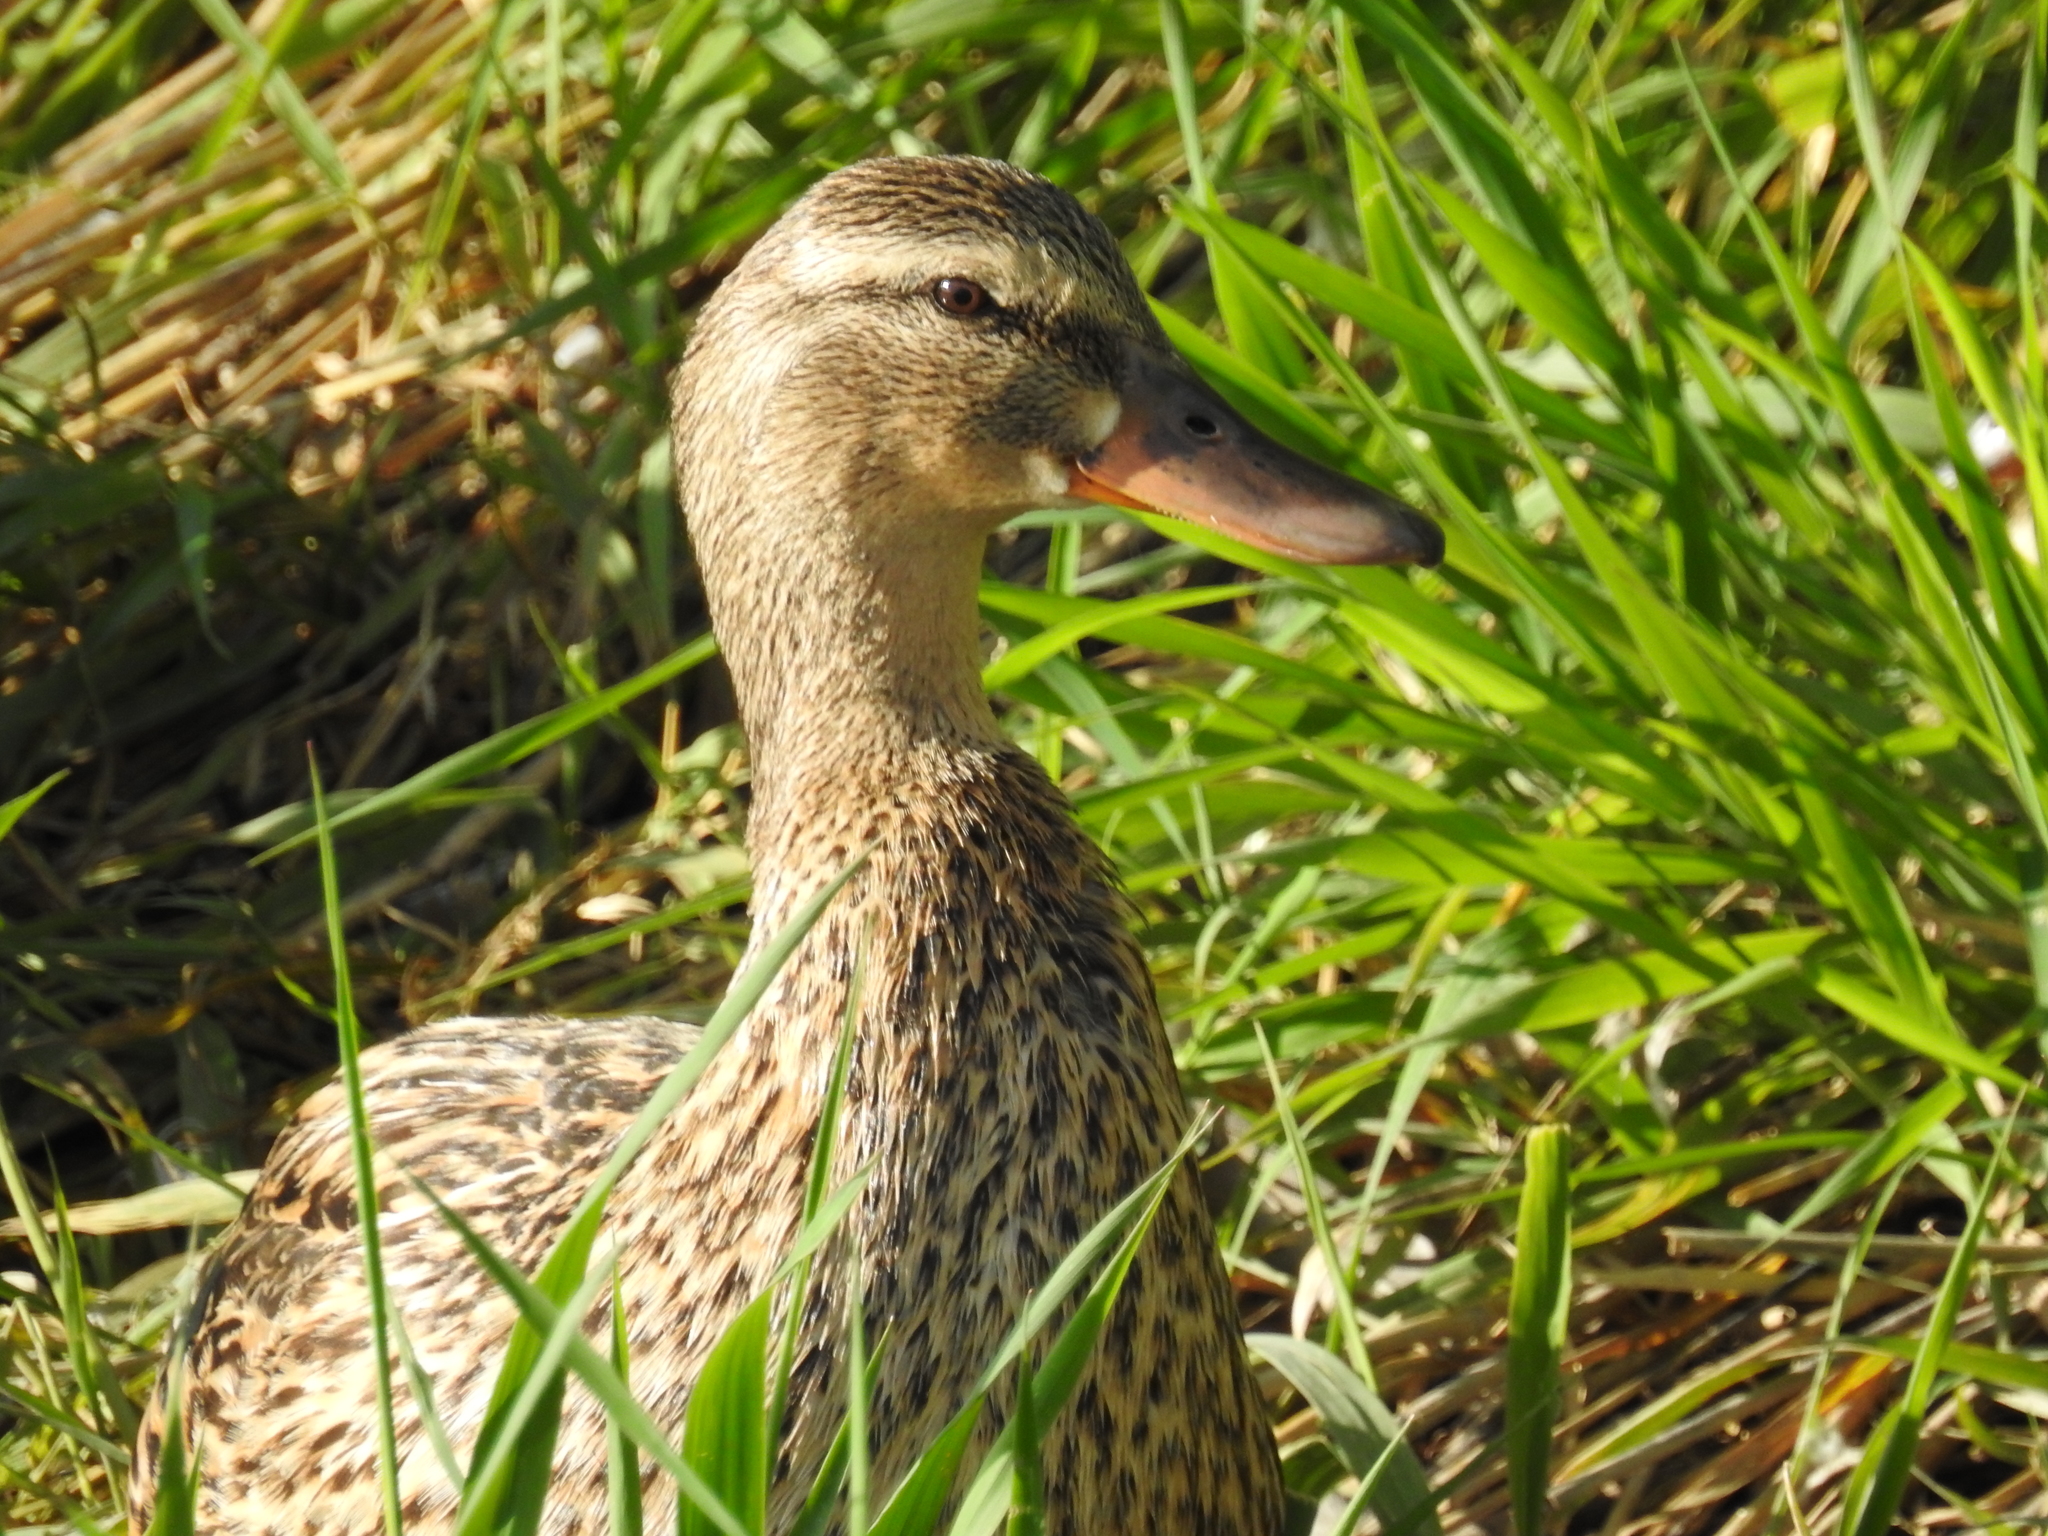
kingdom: Animalia
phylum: Chordata
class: Aves
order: Anseriformes
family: Anatidae
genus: Anas
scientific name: Anas platyrhynchos
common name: Mallard
